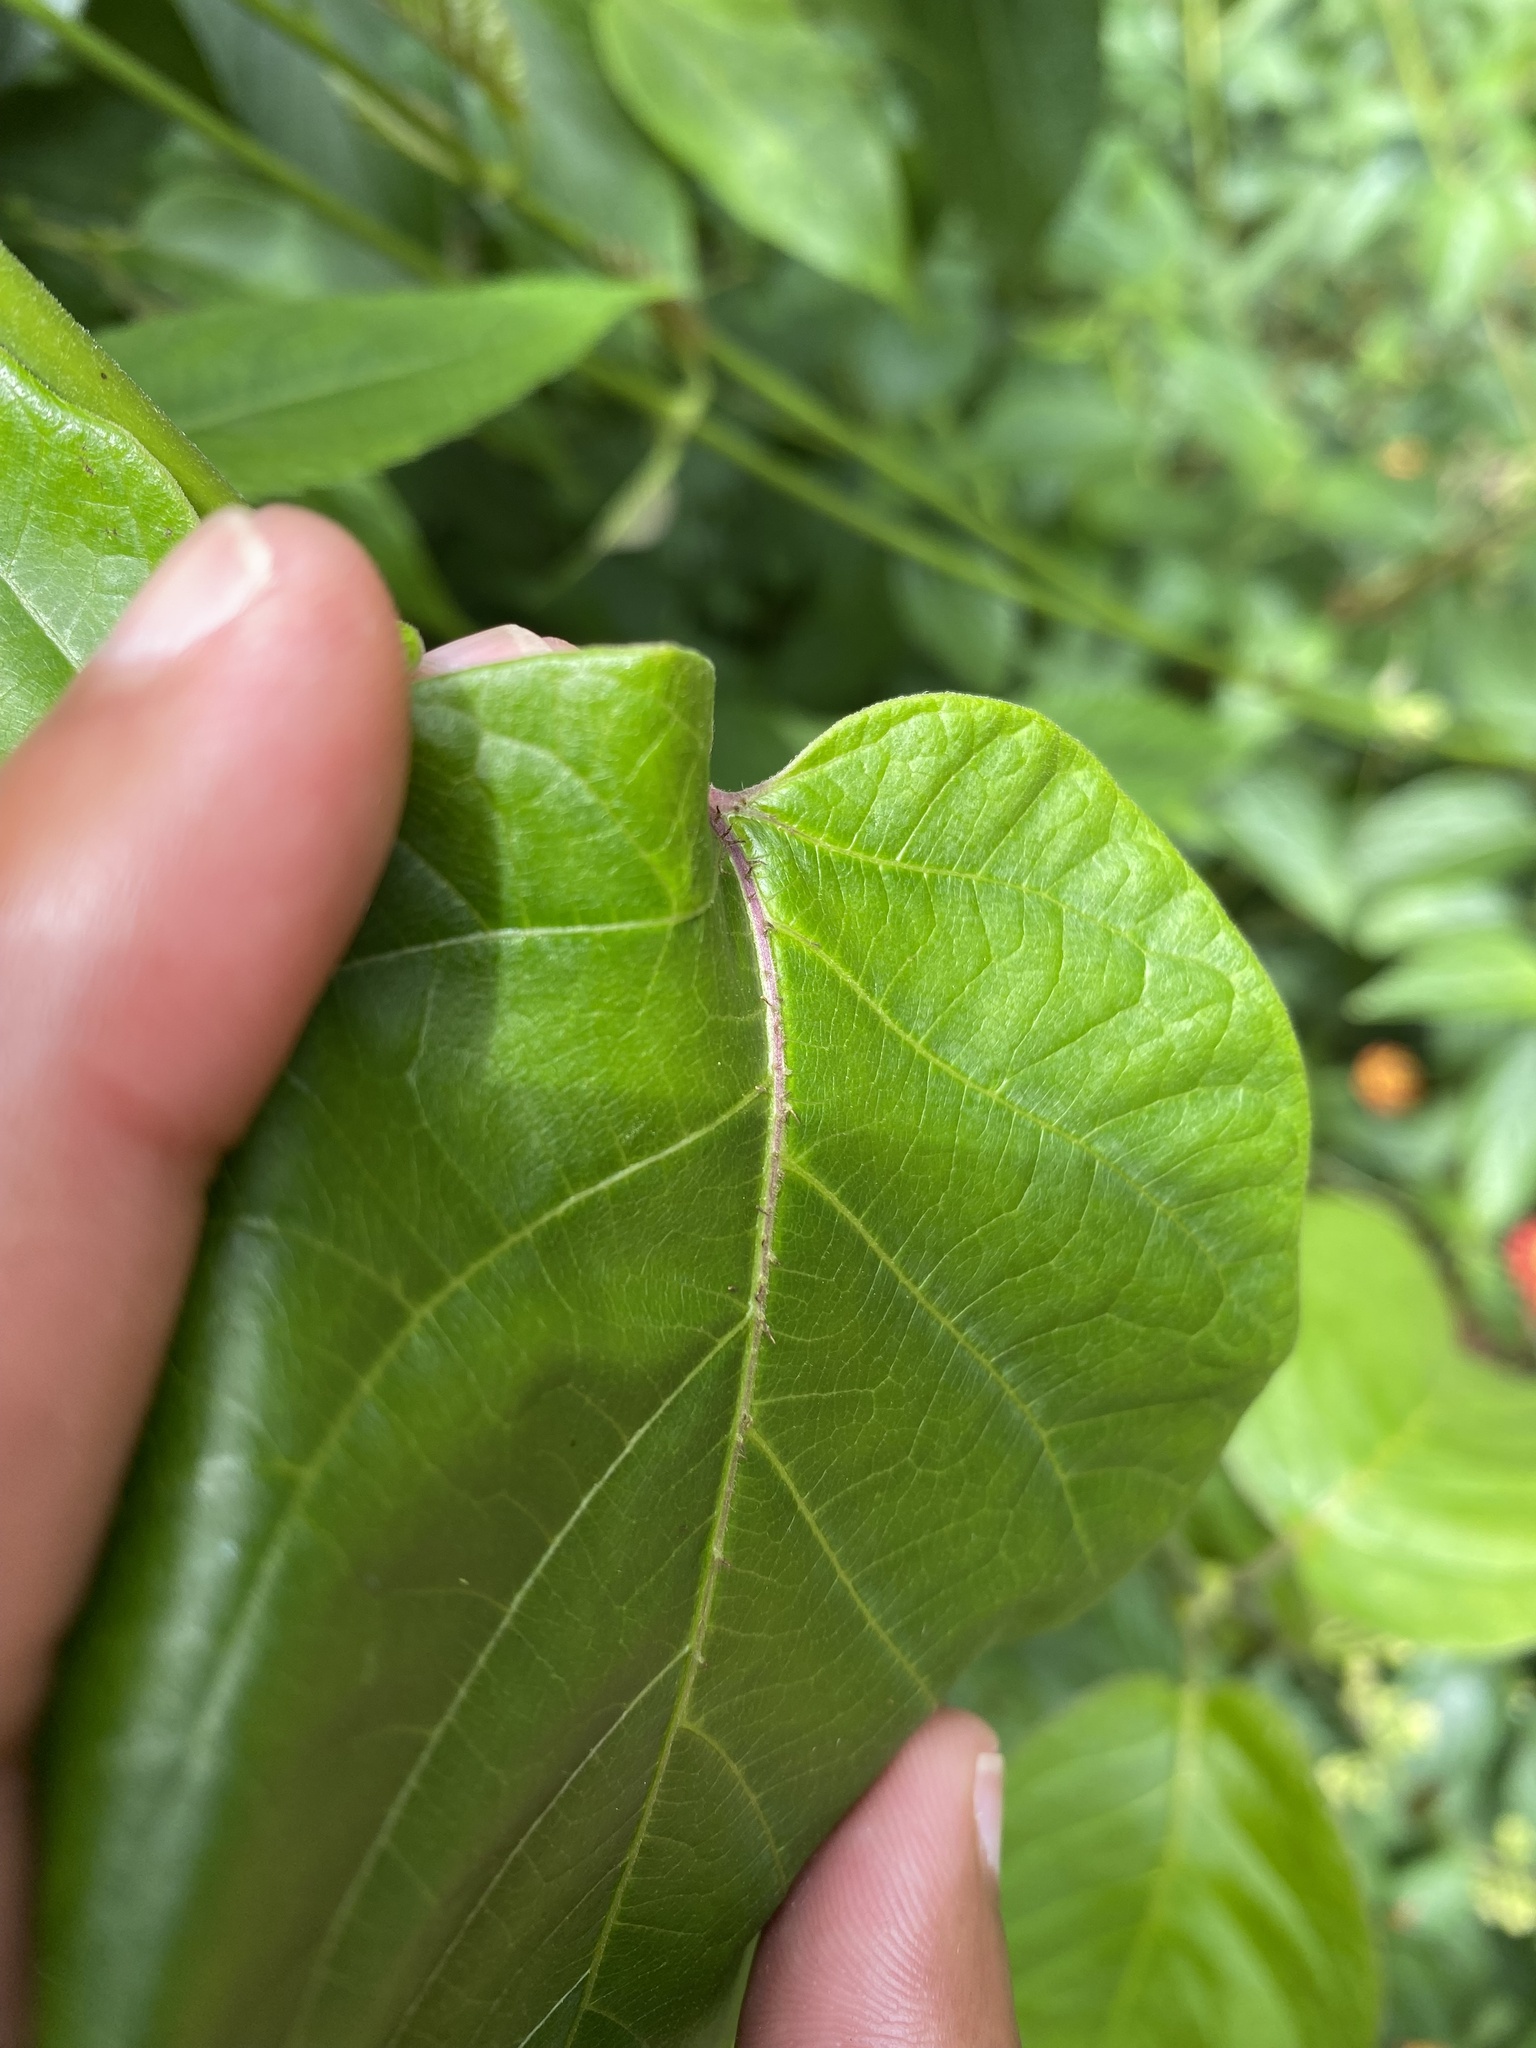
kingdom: Plantae
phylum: Tracheophyta
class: Magnoliopsida
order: Gentianales
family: Apocynaceae
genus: Mondia
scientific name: Mondia whitei
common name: Mondia
